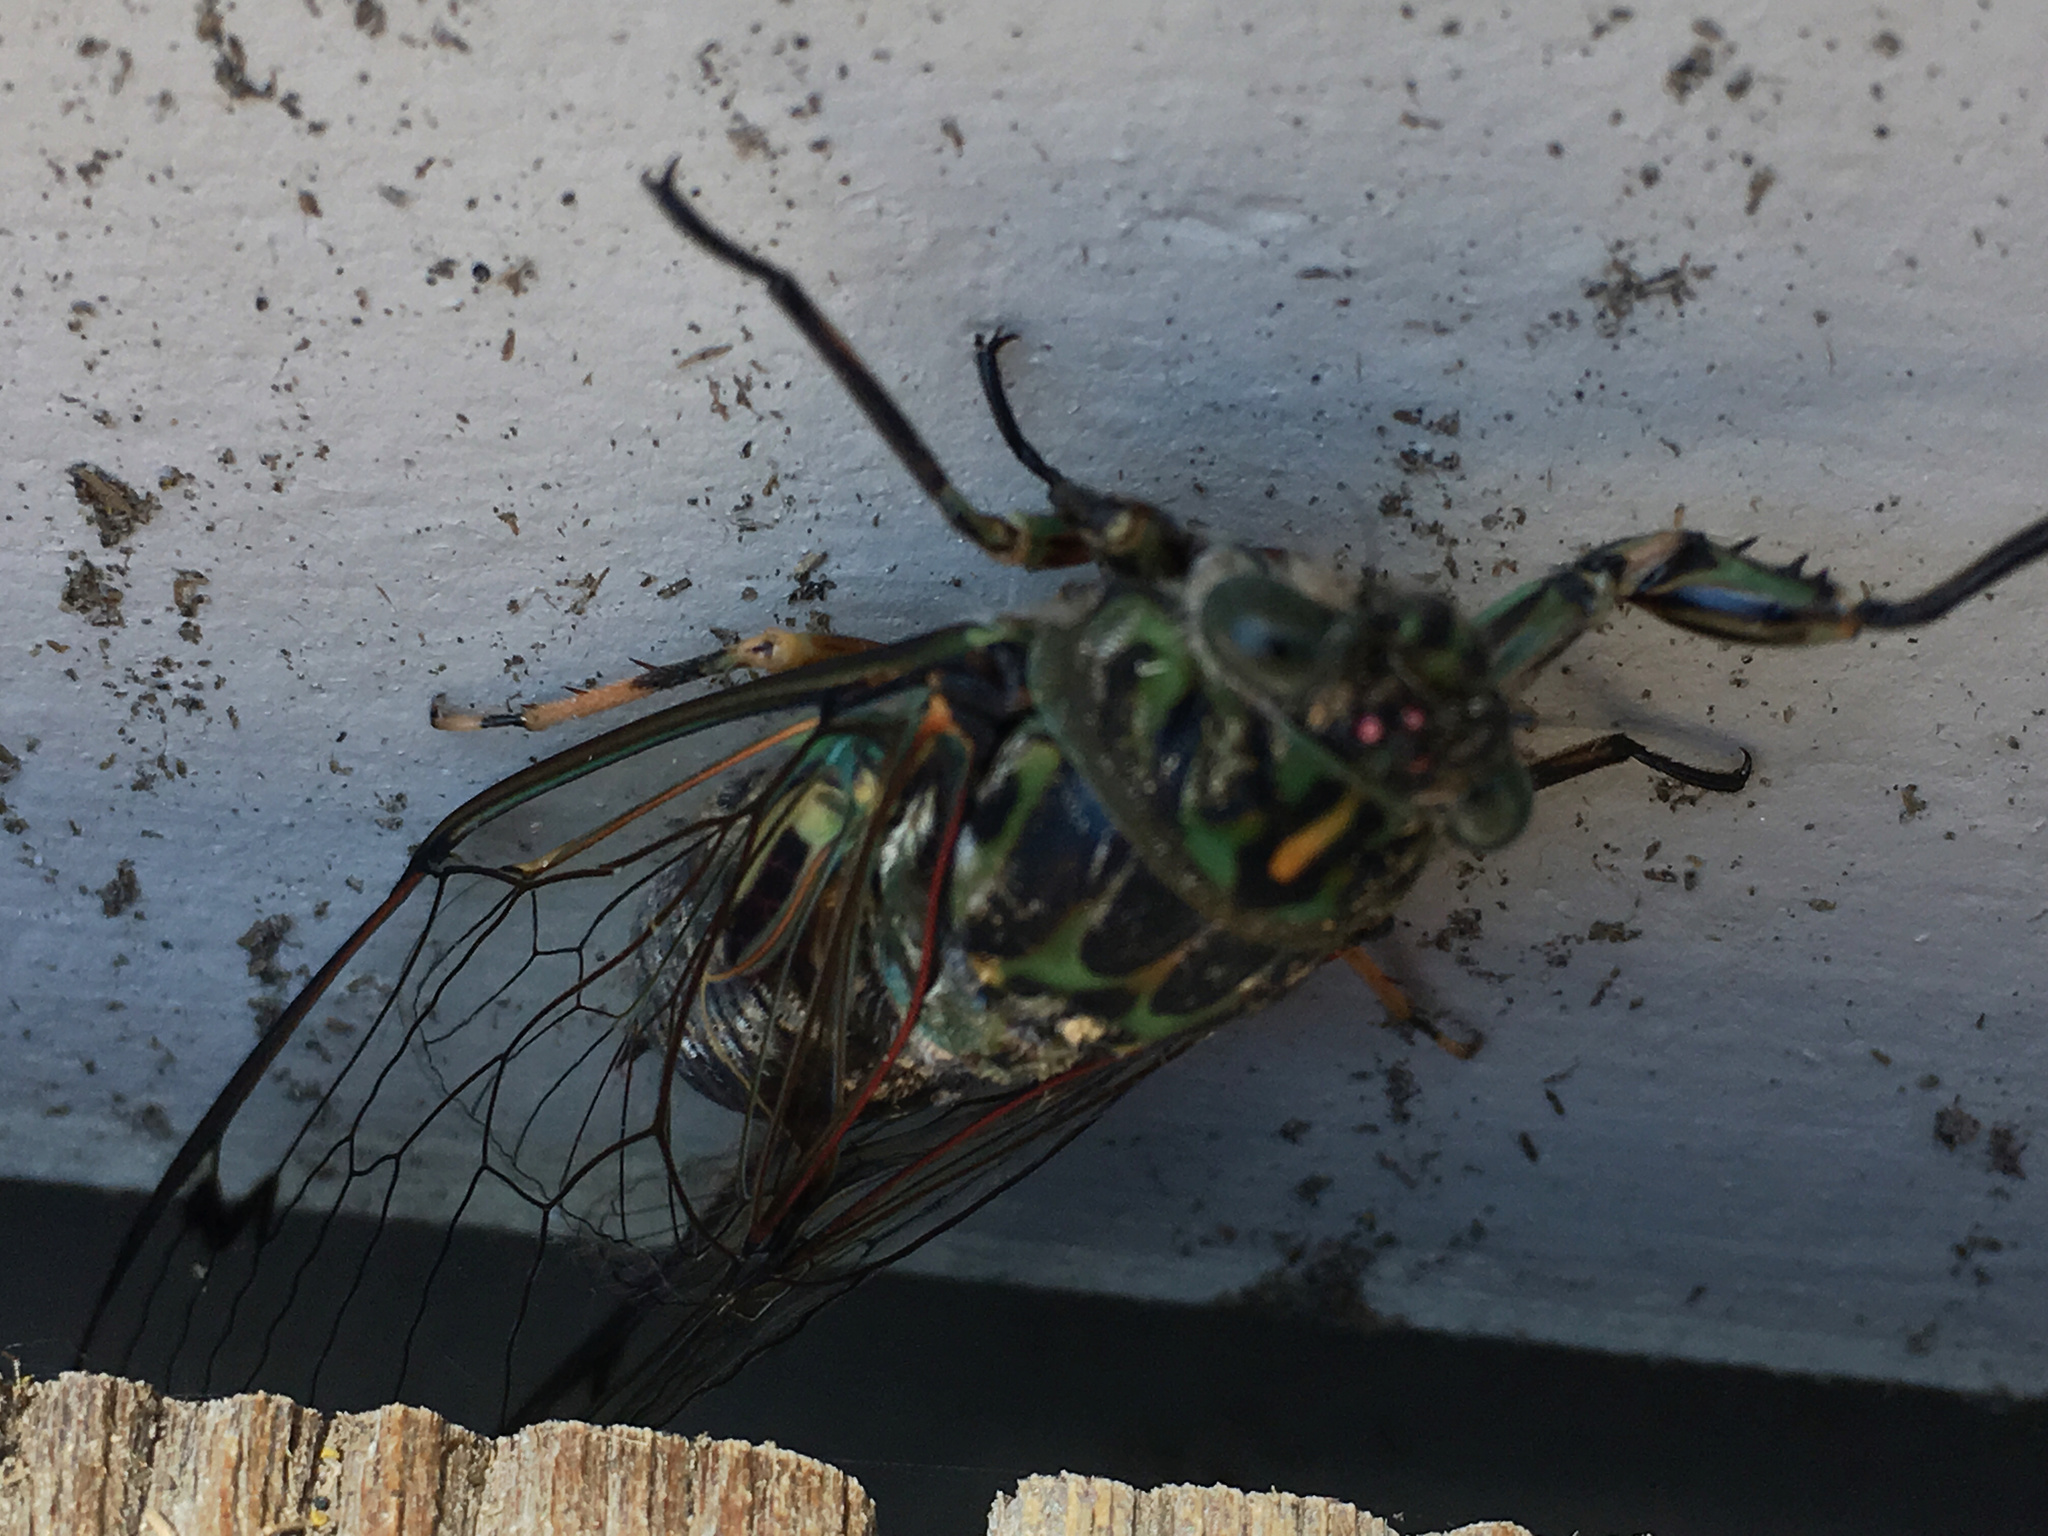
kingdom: Animalia
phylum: Arthropoda
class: Insecta
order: Hemiptera
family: Cicadidae
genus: Amphipsalta
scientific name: Amphipsalta zelandica
